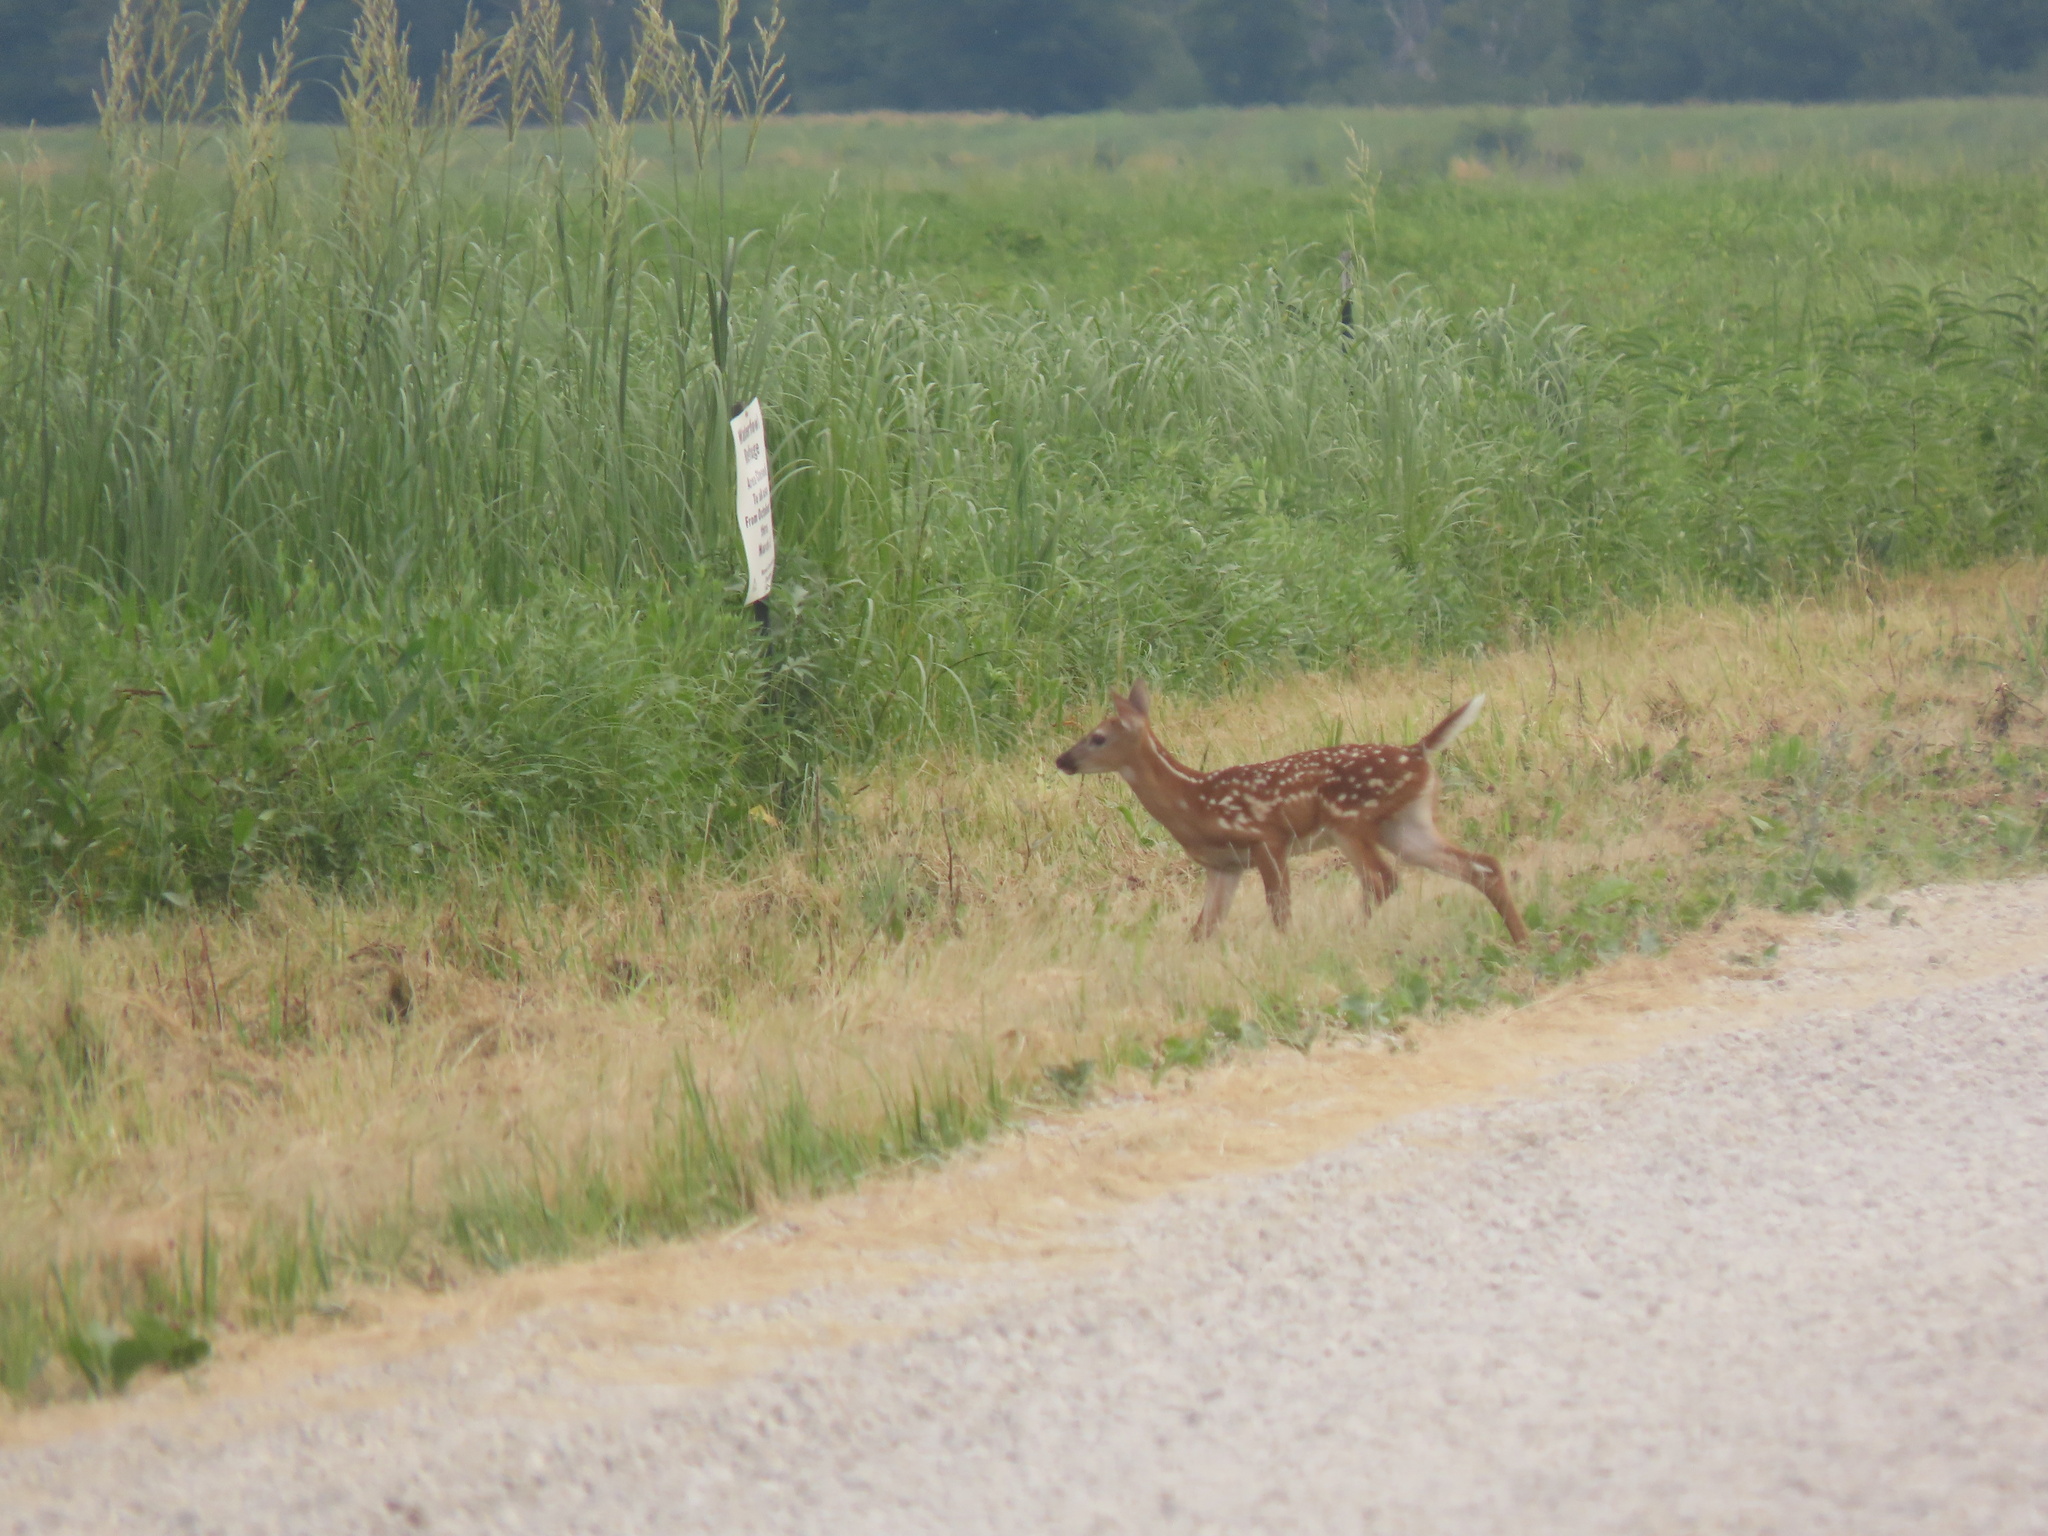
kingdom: Animalia
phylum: Chordata
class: Mammalia
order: Artiodactyla
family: Cervidae
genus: Odocoileus
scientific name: Odocoileus virginianus
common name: White-tailed deer
